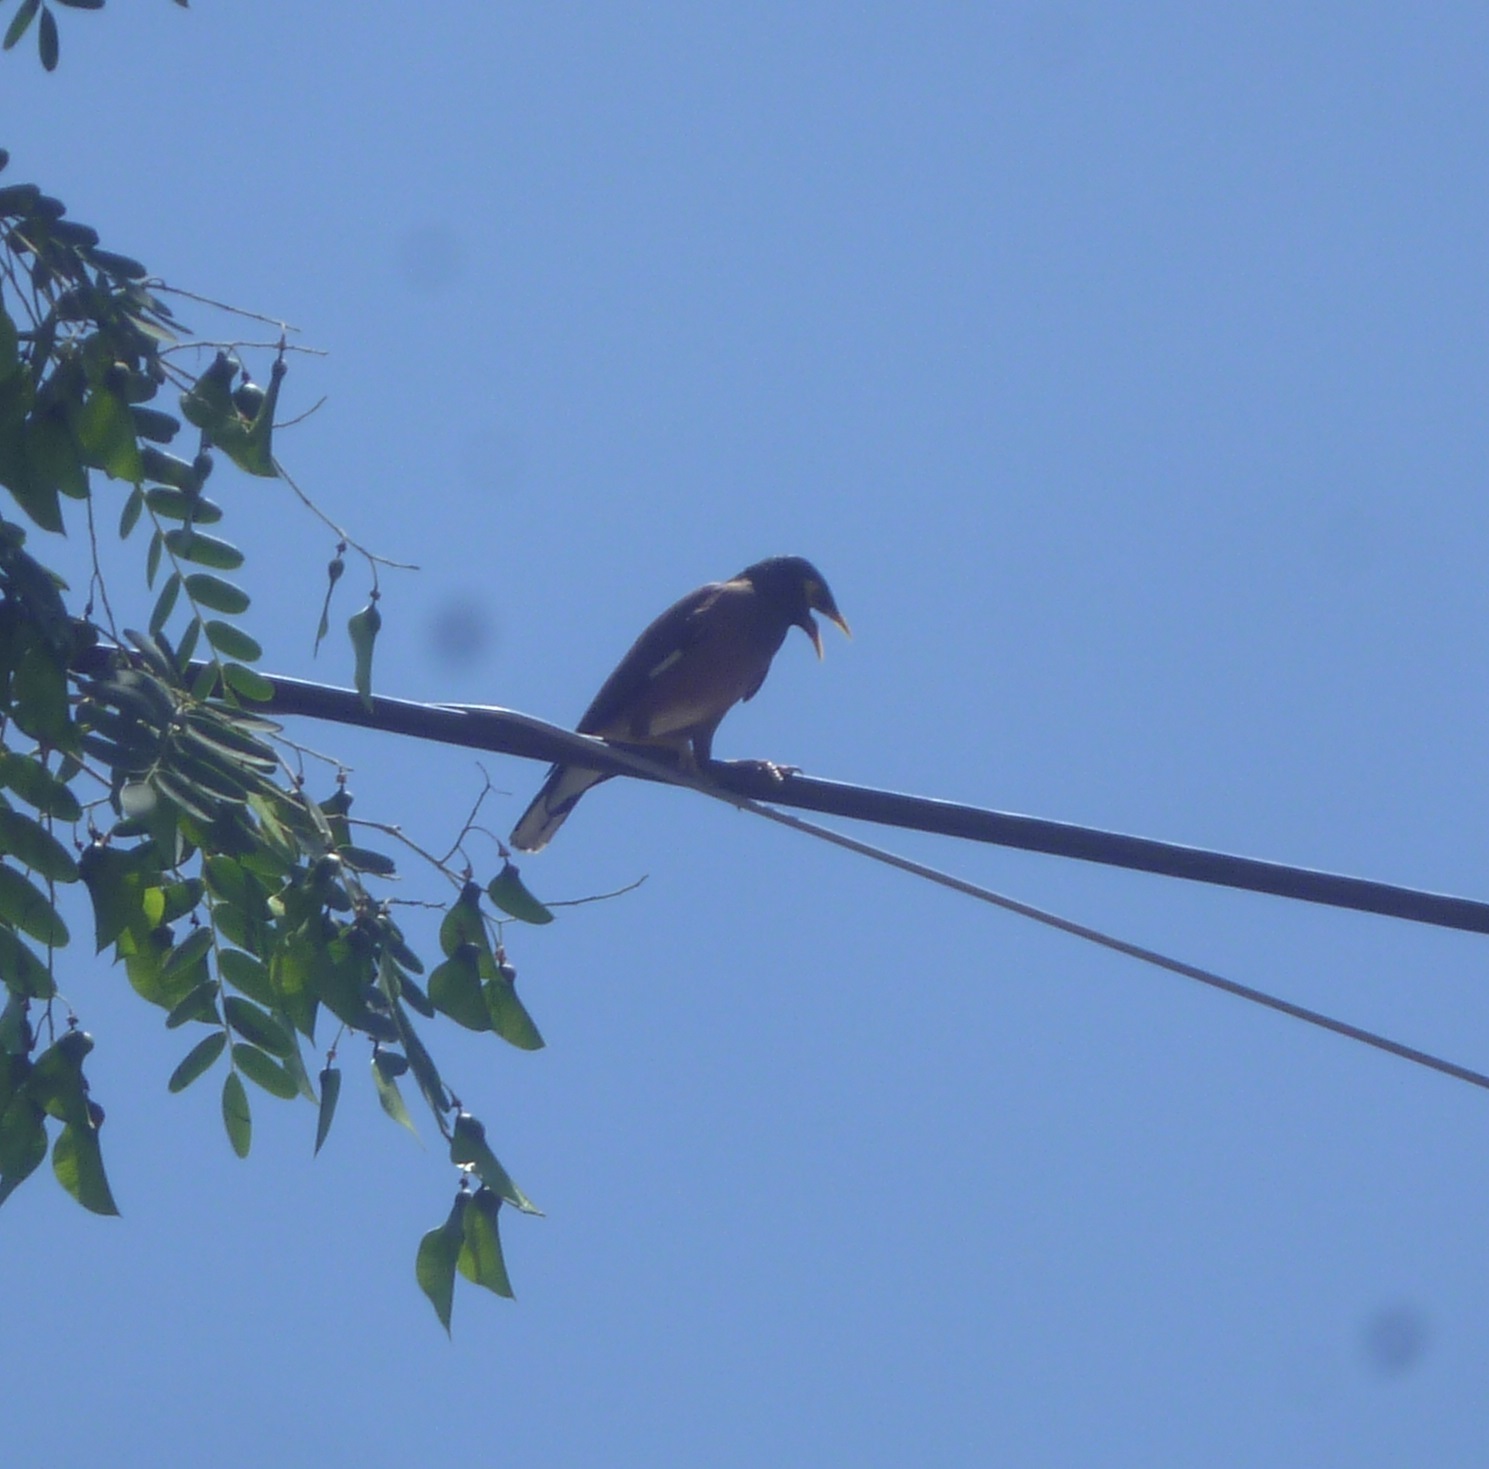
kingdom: Animalia
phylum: Chordata
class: Aves
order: Passeriformes
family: Sturnidae
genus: Acridotheres
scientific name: Acridotheres tristis
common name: Common myna
